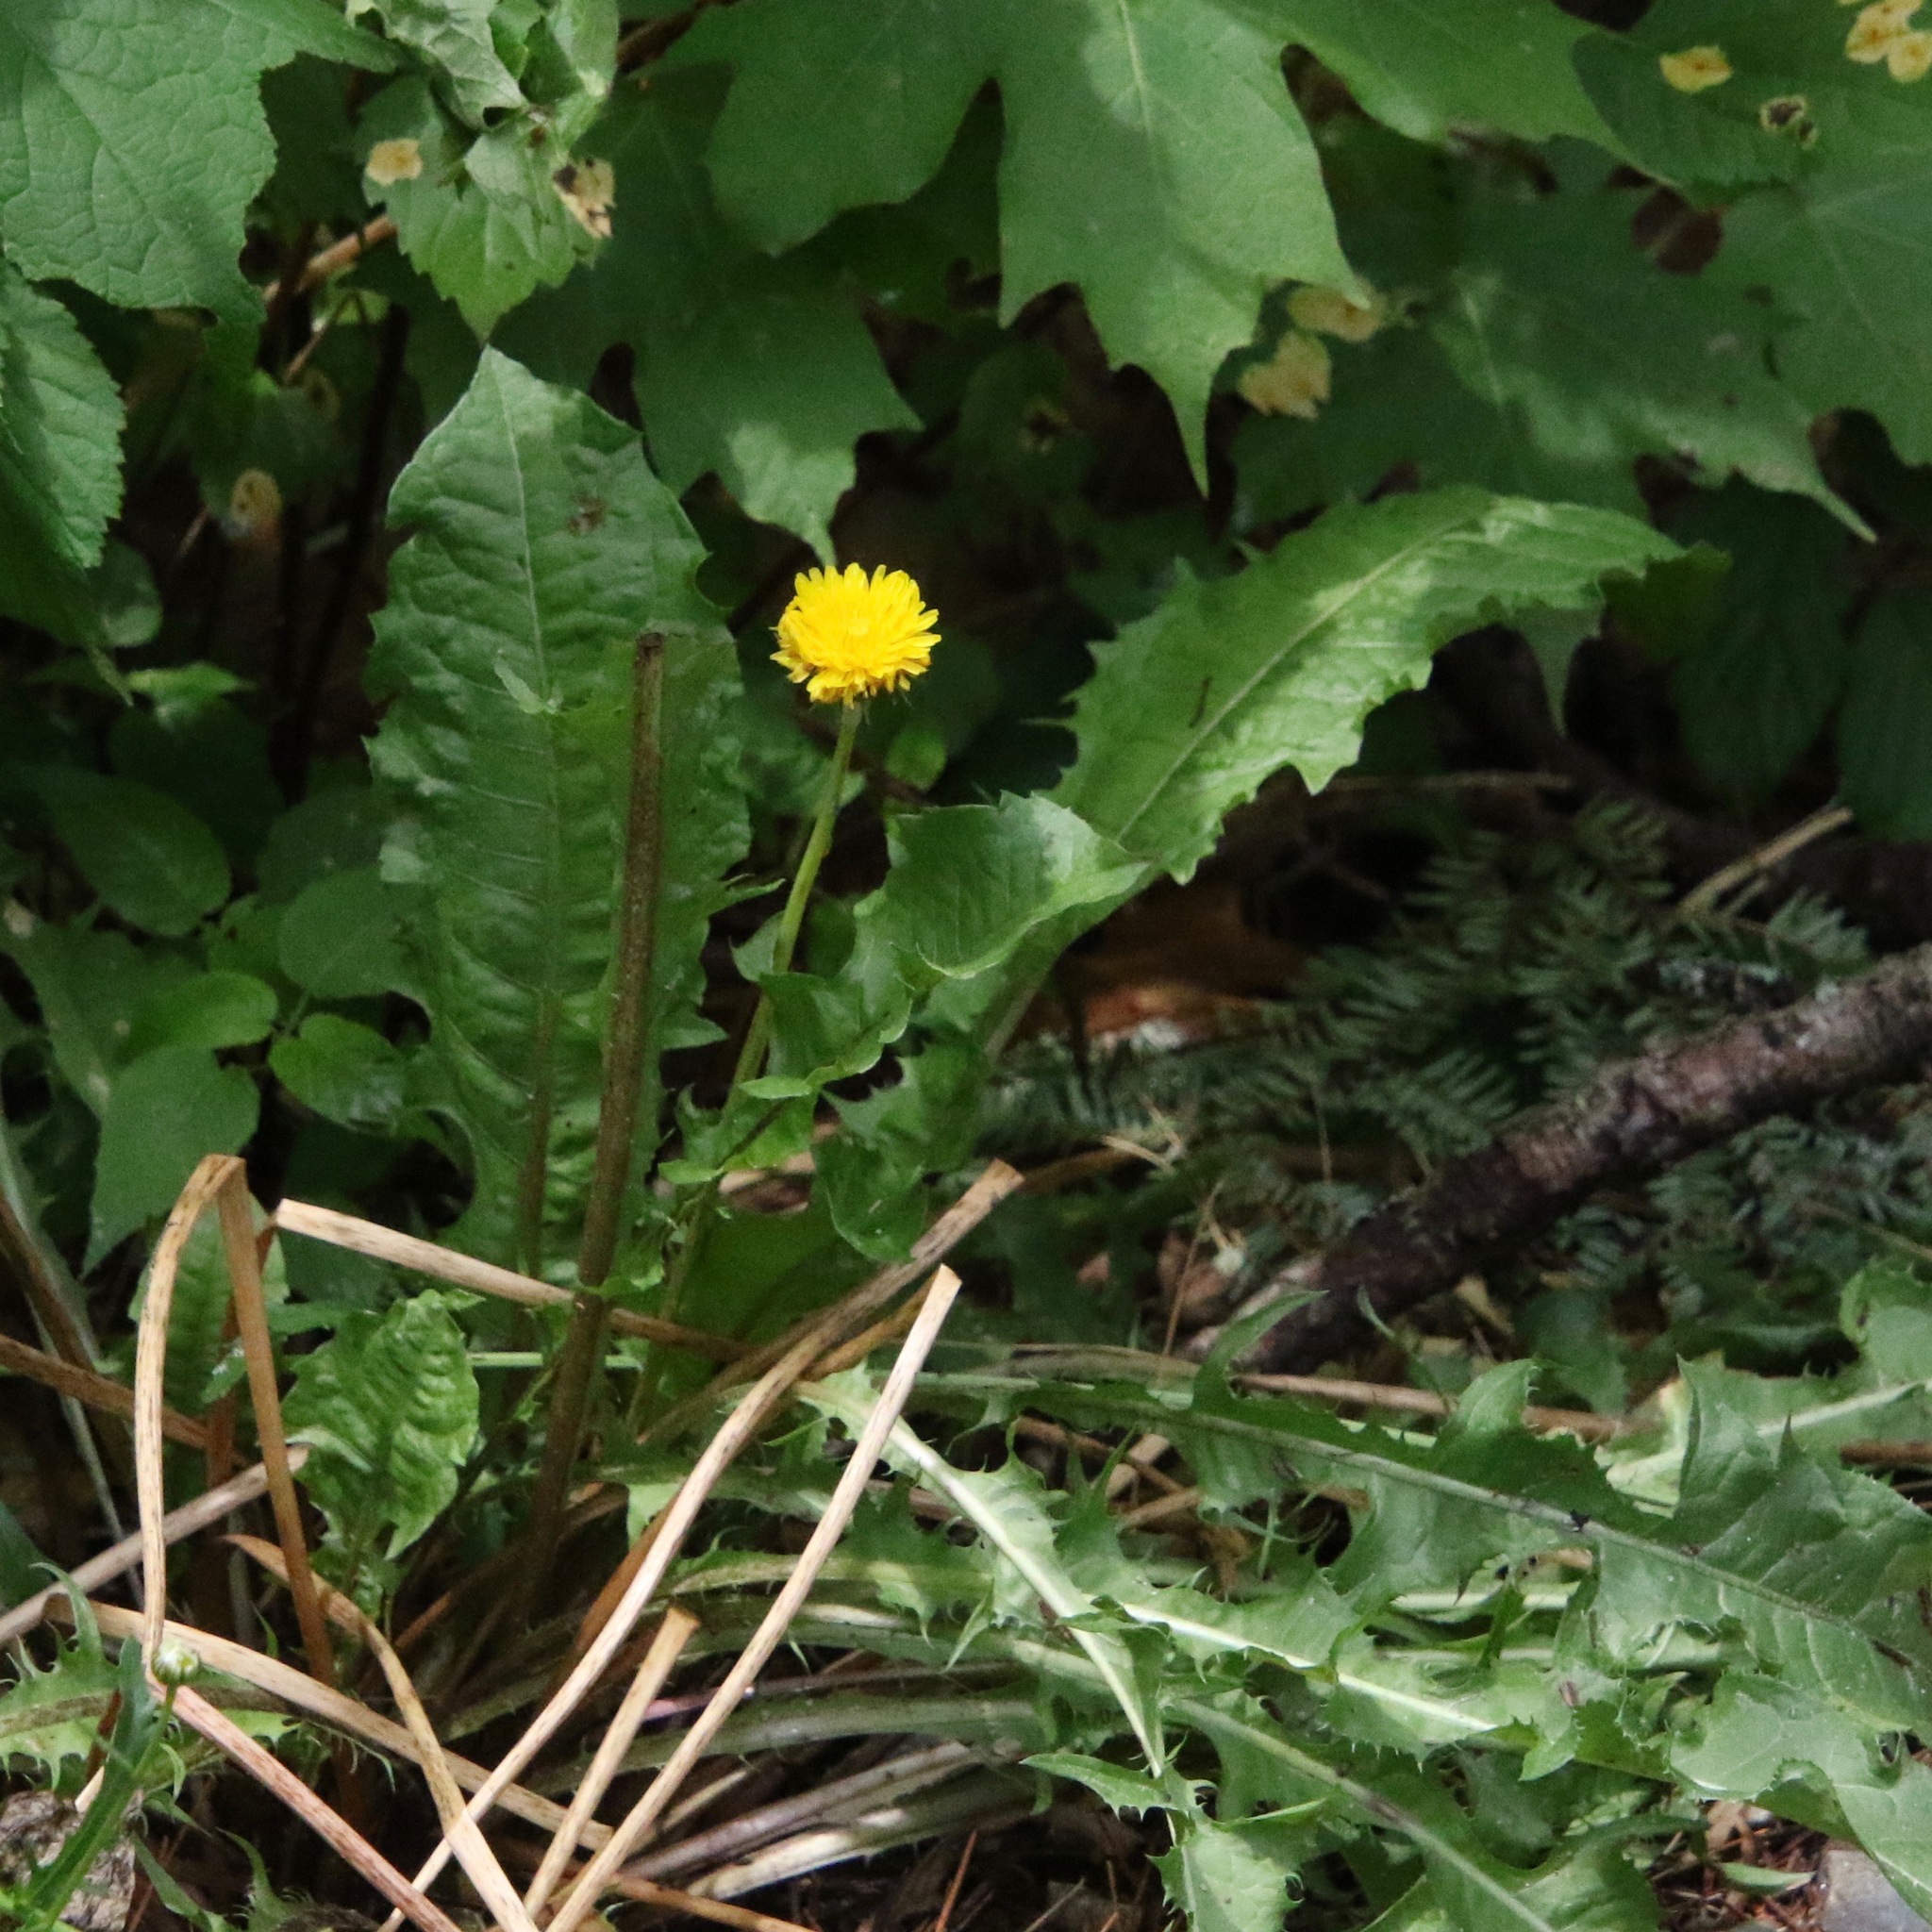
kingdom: Plantae
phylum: Tracheophyta
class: Magnoliopsida
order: Asterales
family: Asteraceae
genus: Taraxacum
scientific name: Taraxacum officinale
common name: Common dandelion
